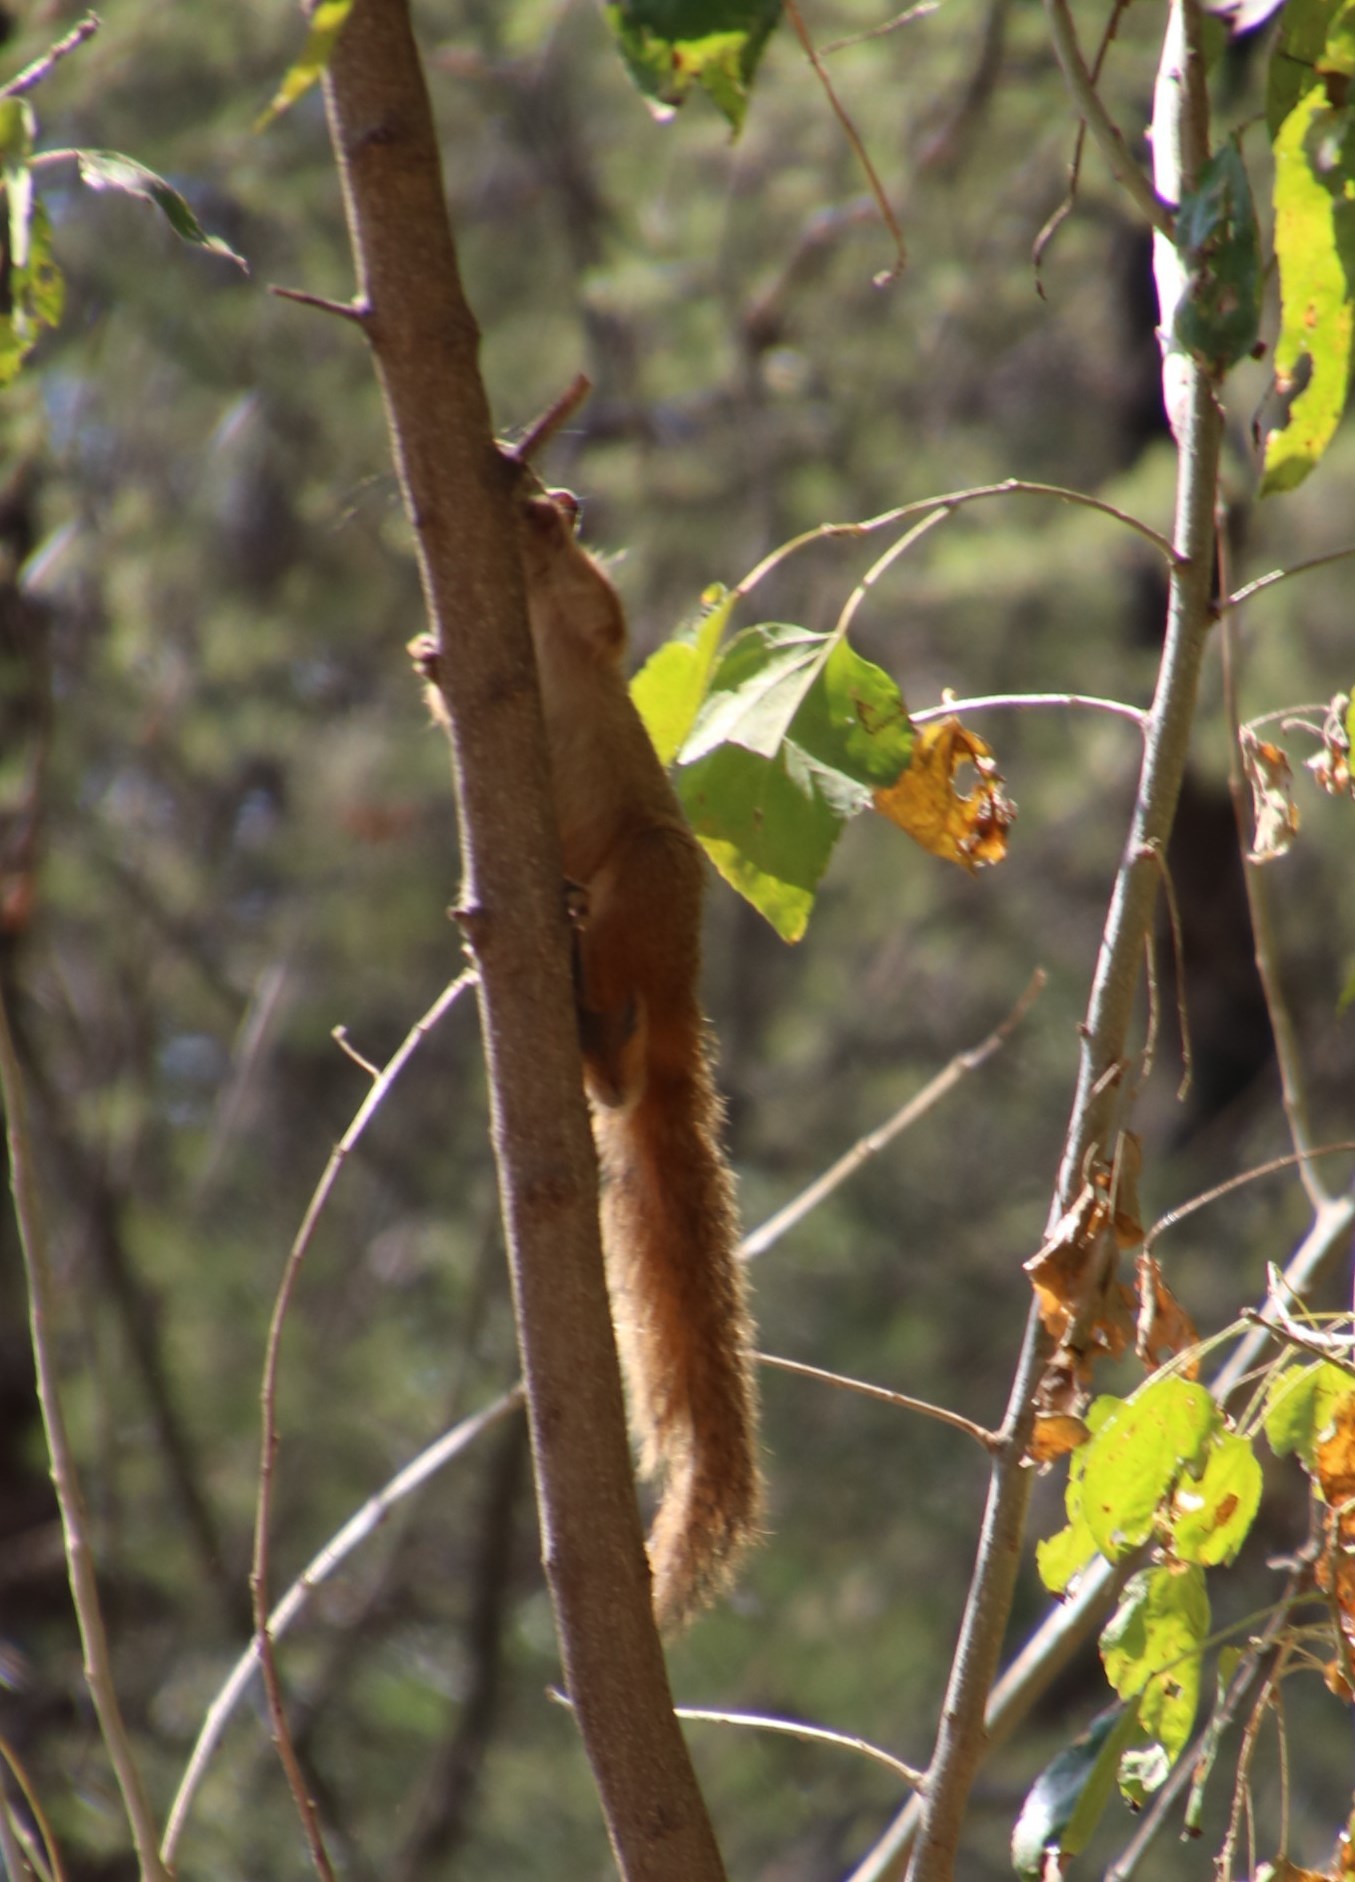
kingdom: Animalia
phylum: Chordata
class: Mammalia
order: Rodentia
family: Sciuridae
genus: Paraxerus
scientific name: Paraxerus cepapi
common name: Smith's bush squirrel
